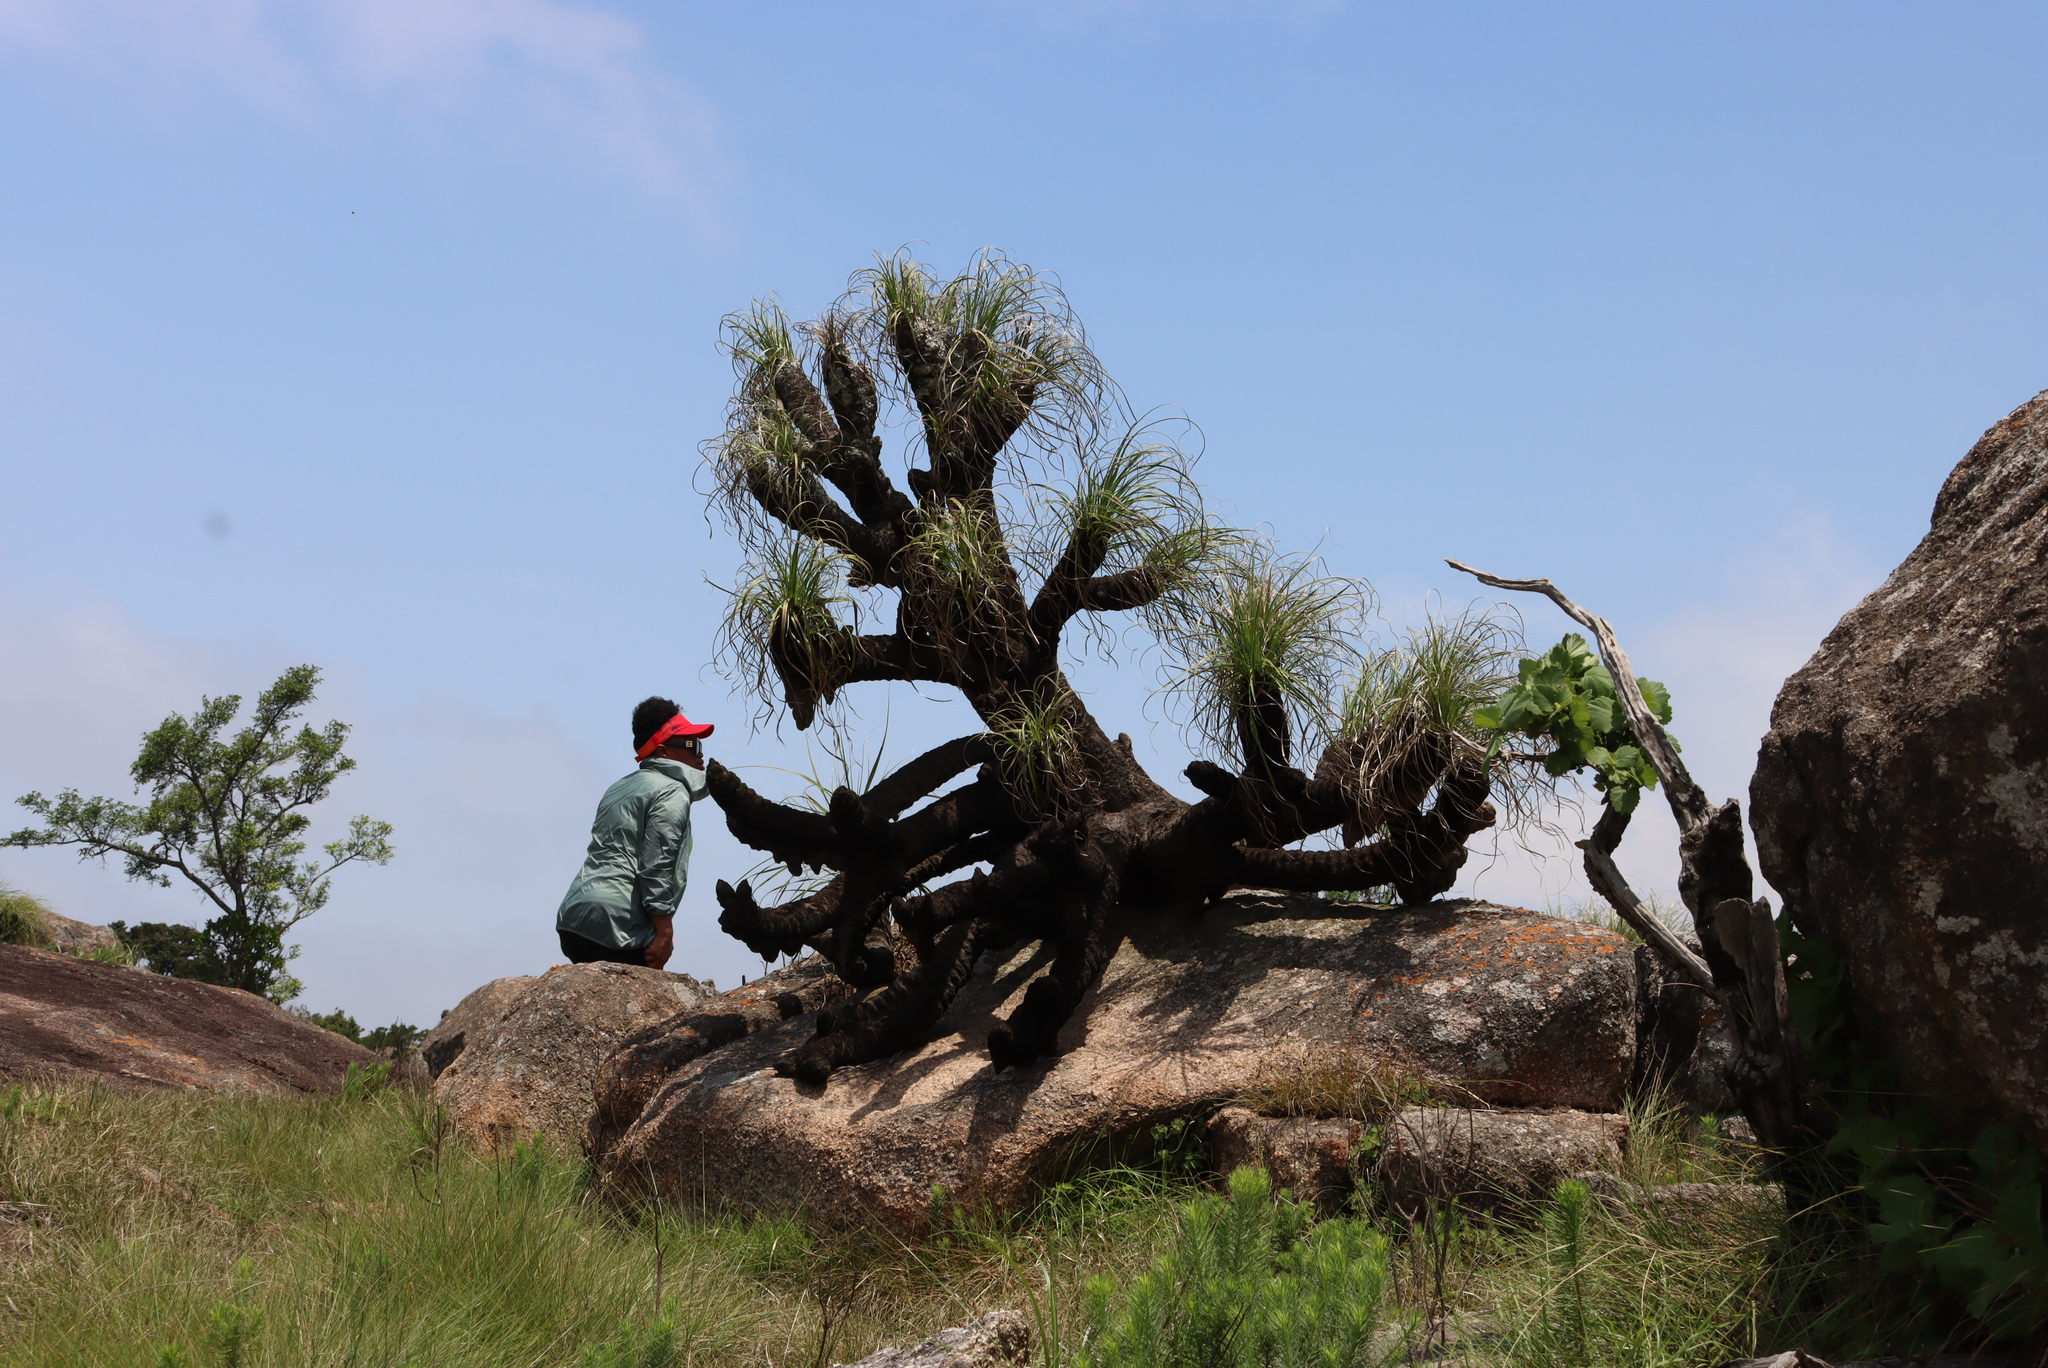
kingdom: Plantae
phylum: Tracheophyta
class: Liliopsida
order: Pandanales
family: Velloziaceae
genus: Xerophyta
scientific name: Xerophyta retinervis
